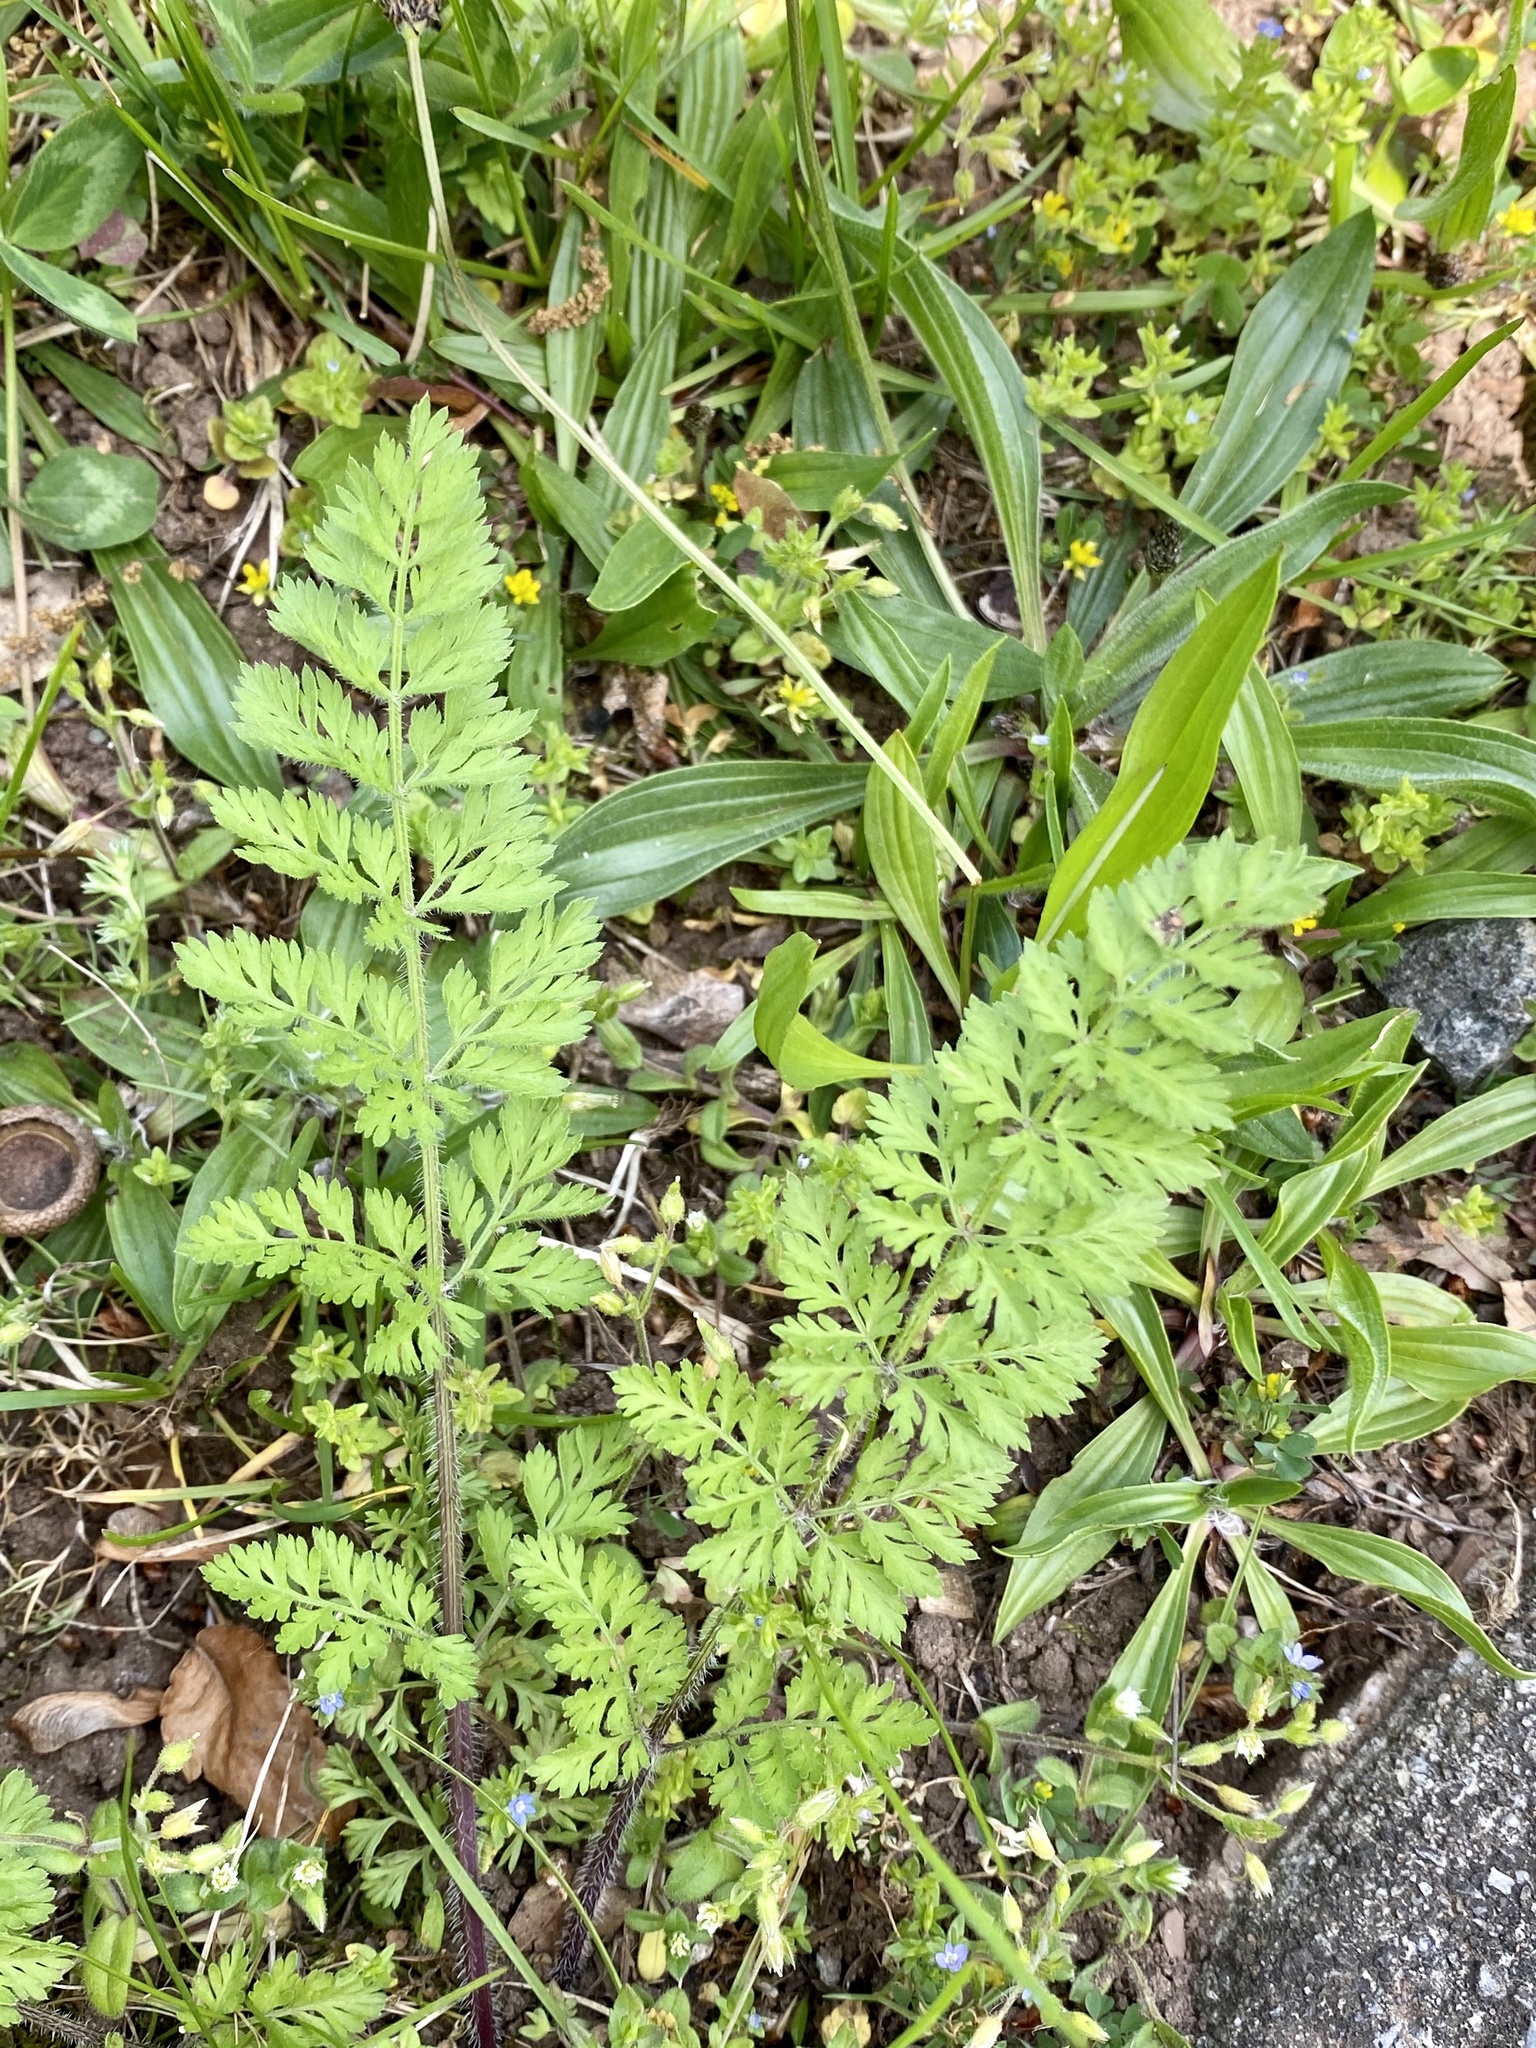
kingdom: Plantae
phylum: Tracheophyta
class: Magnoliopsida
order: Apiales
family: Apiaceae
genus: Daucus
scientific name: Daucus carota
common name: Wild carrot
